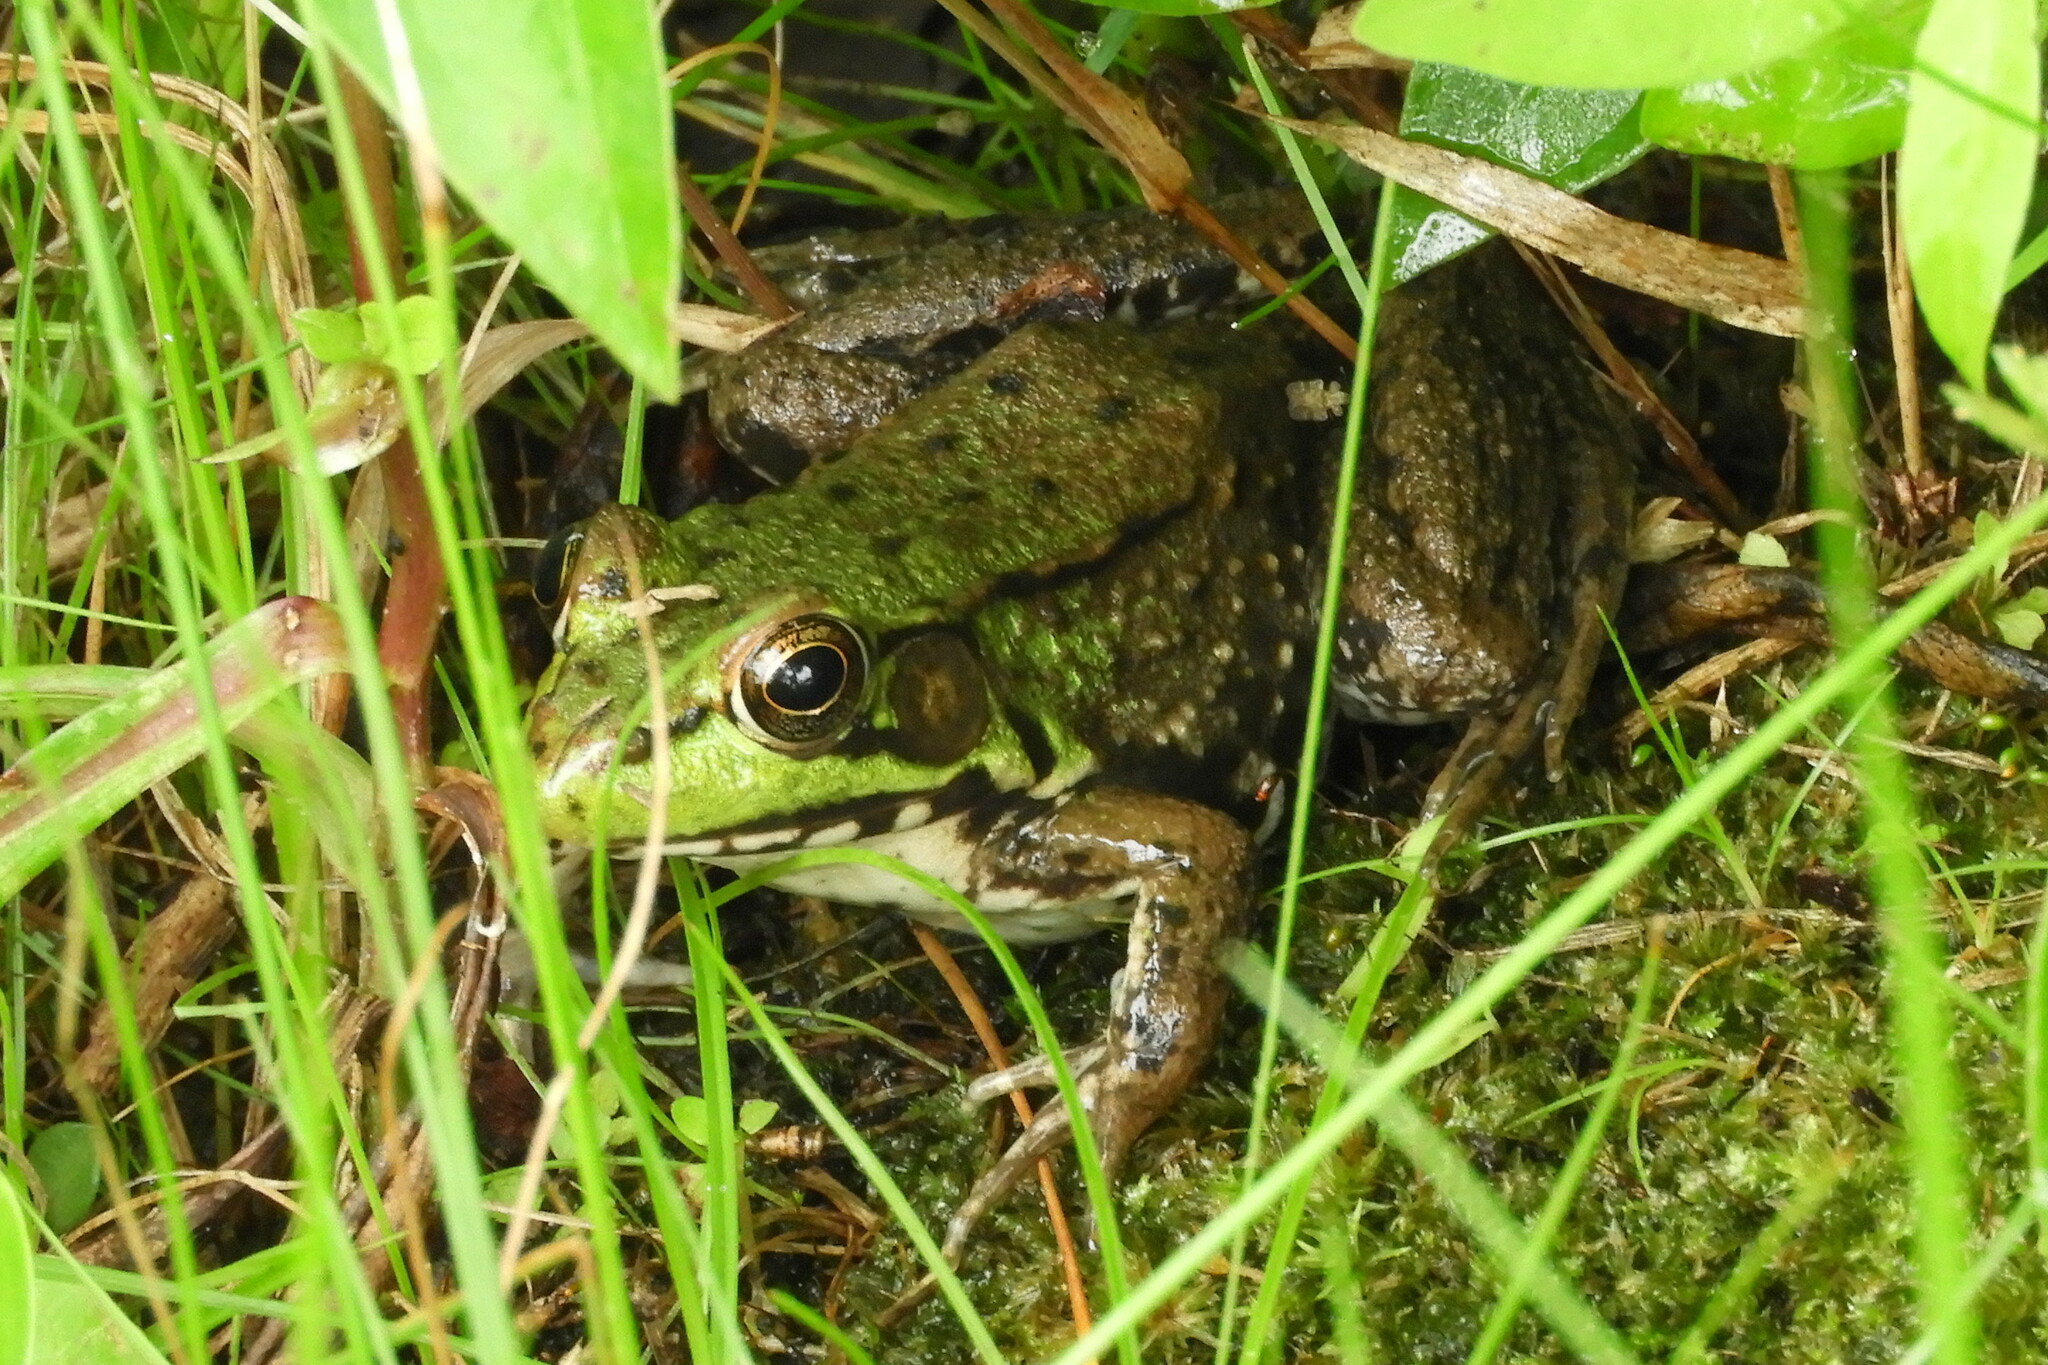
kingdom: Animalia
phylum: Chordata
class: Amphibia
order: Anura
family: Ranidae
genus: Lithobates
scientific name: Lithobates clamitans
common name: Green frog
